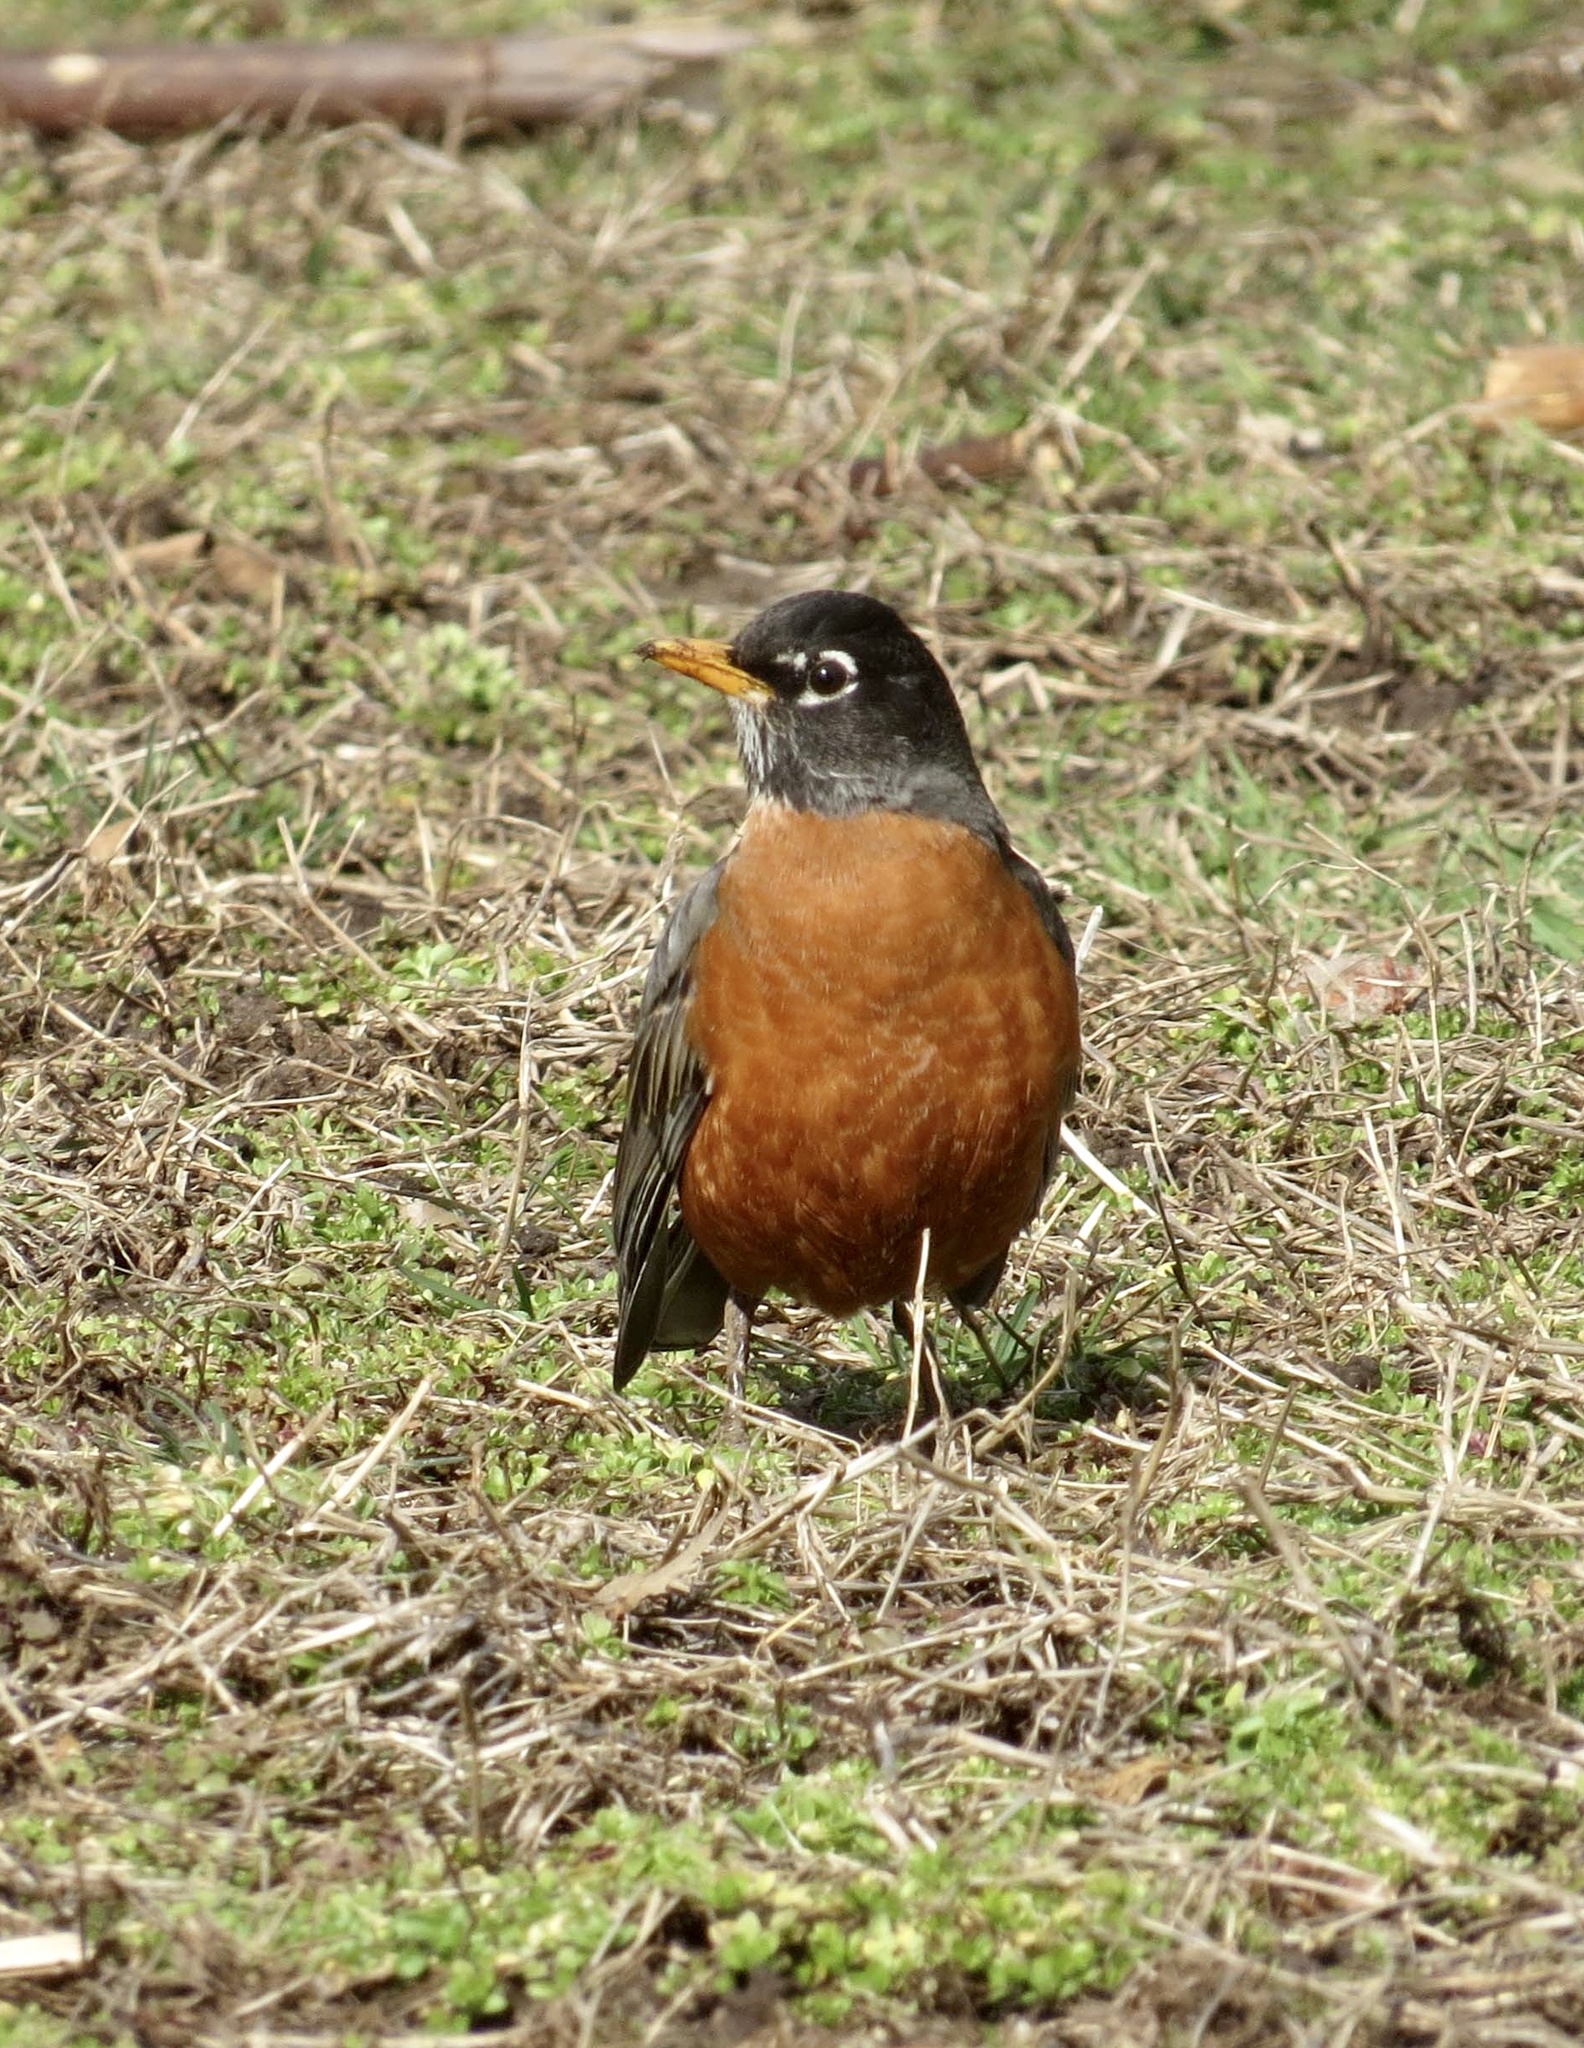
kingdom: Animalia
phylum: Chordata
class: Aves
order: Passeriformes
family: Turdidae
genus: Turdus
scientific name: Turdus migratorius
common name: American robin
